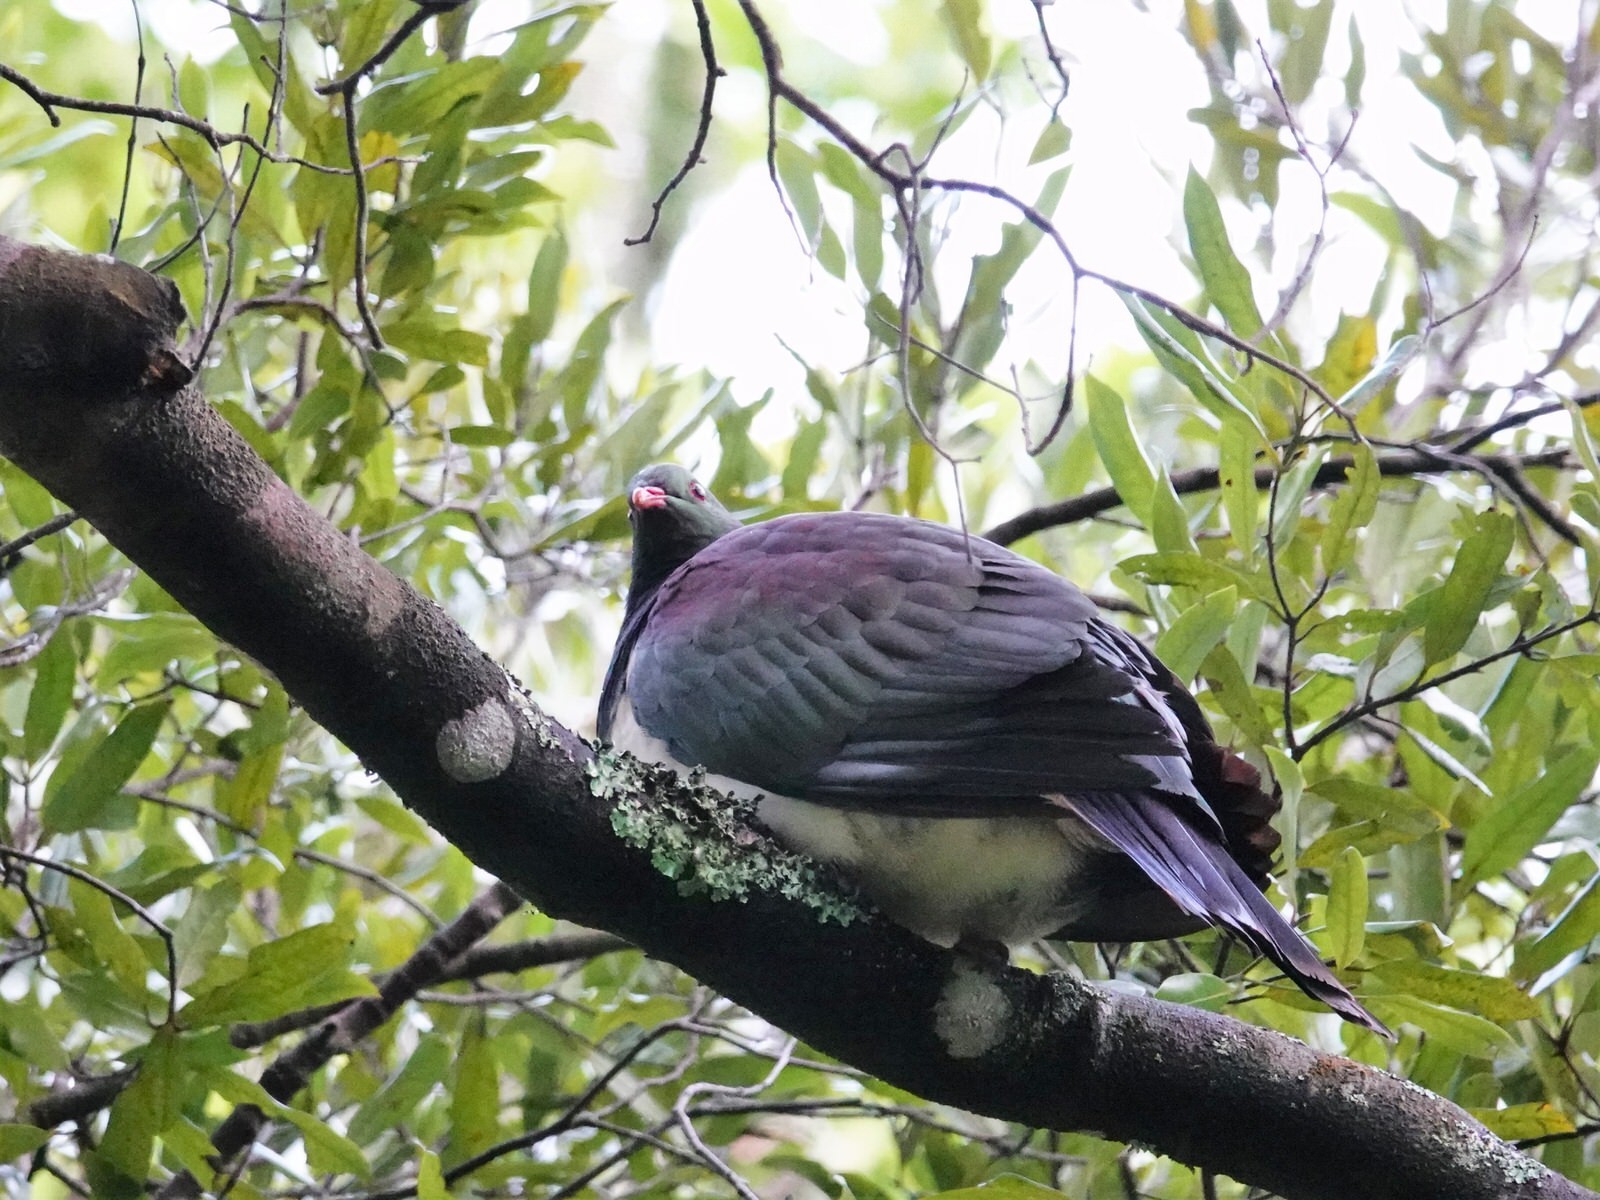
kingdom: Animalia
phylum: Chordata
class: Aves
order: Columbiformes
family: Columbidae
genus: Hemiphaga
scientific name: Hemiphaga novaeseelandiae
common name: New zealand pigeon
